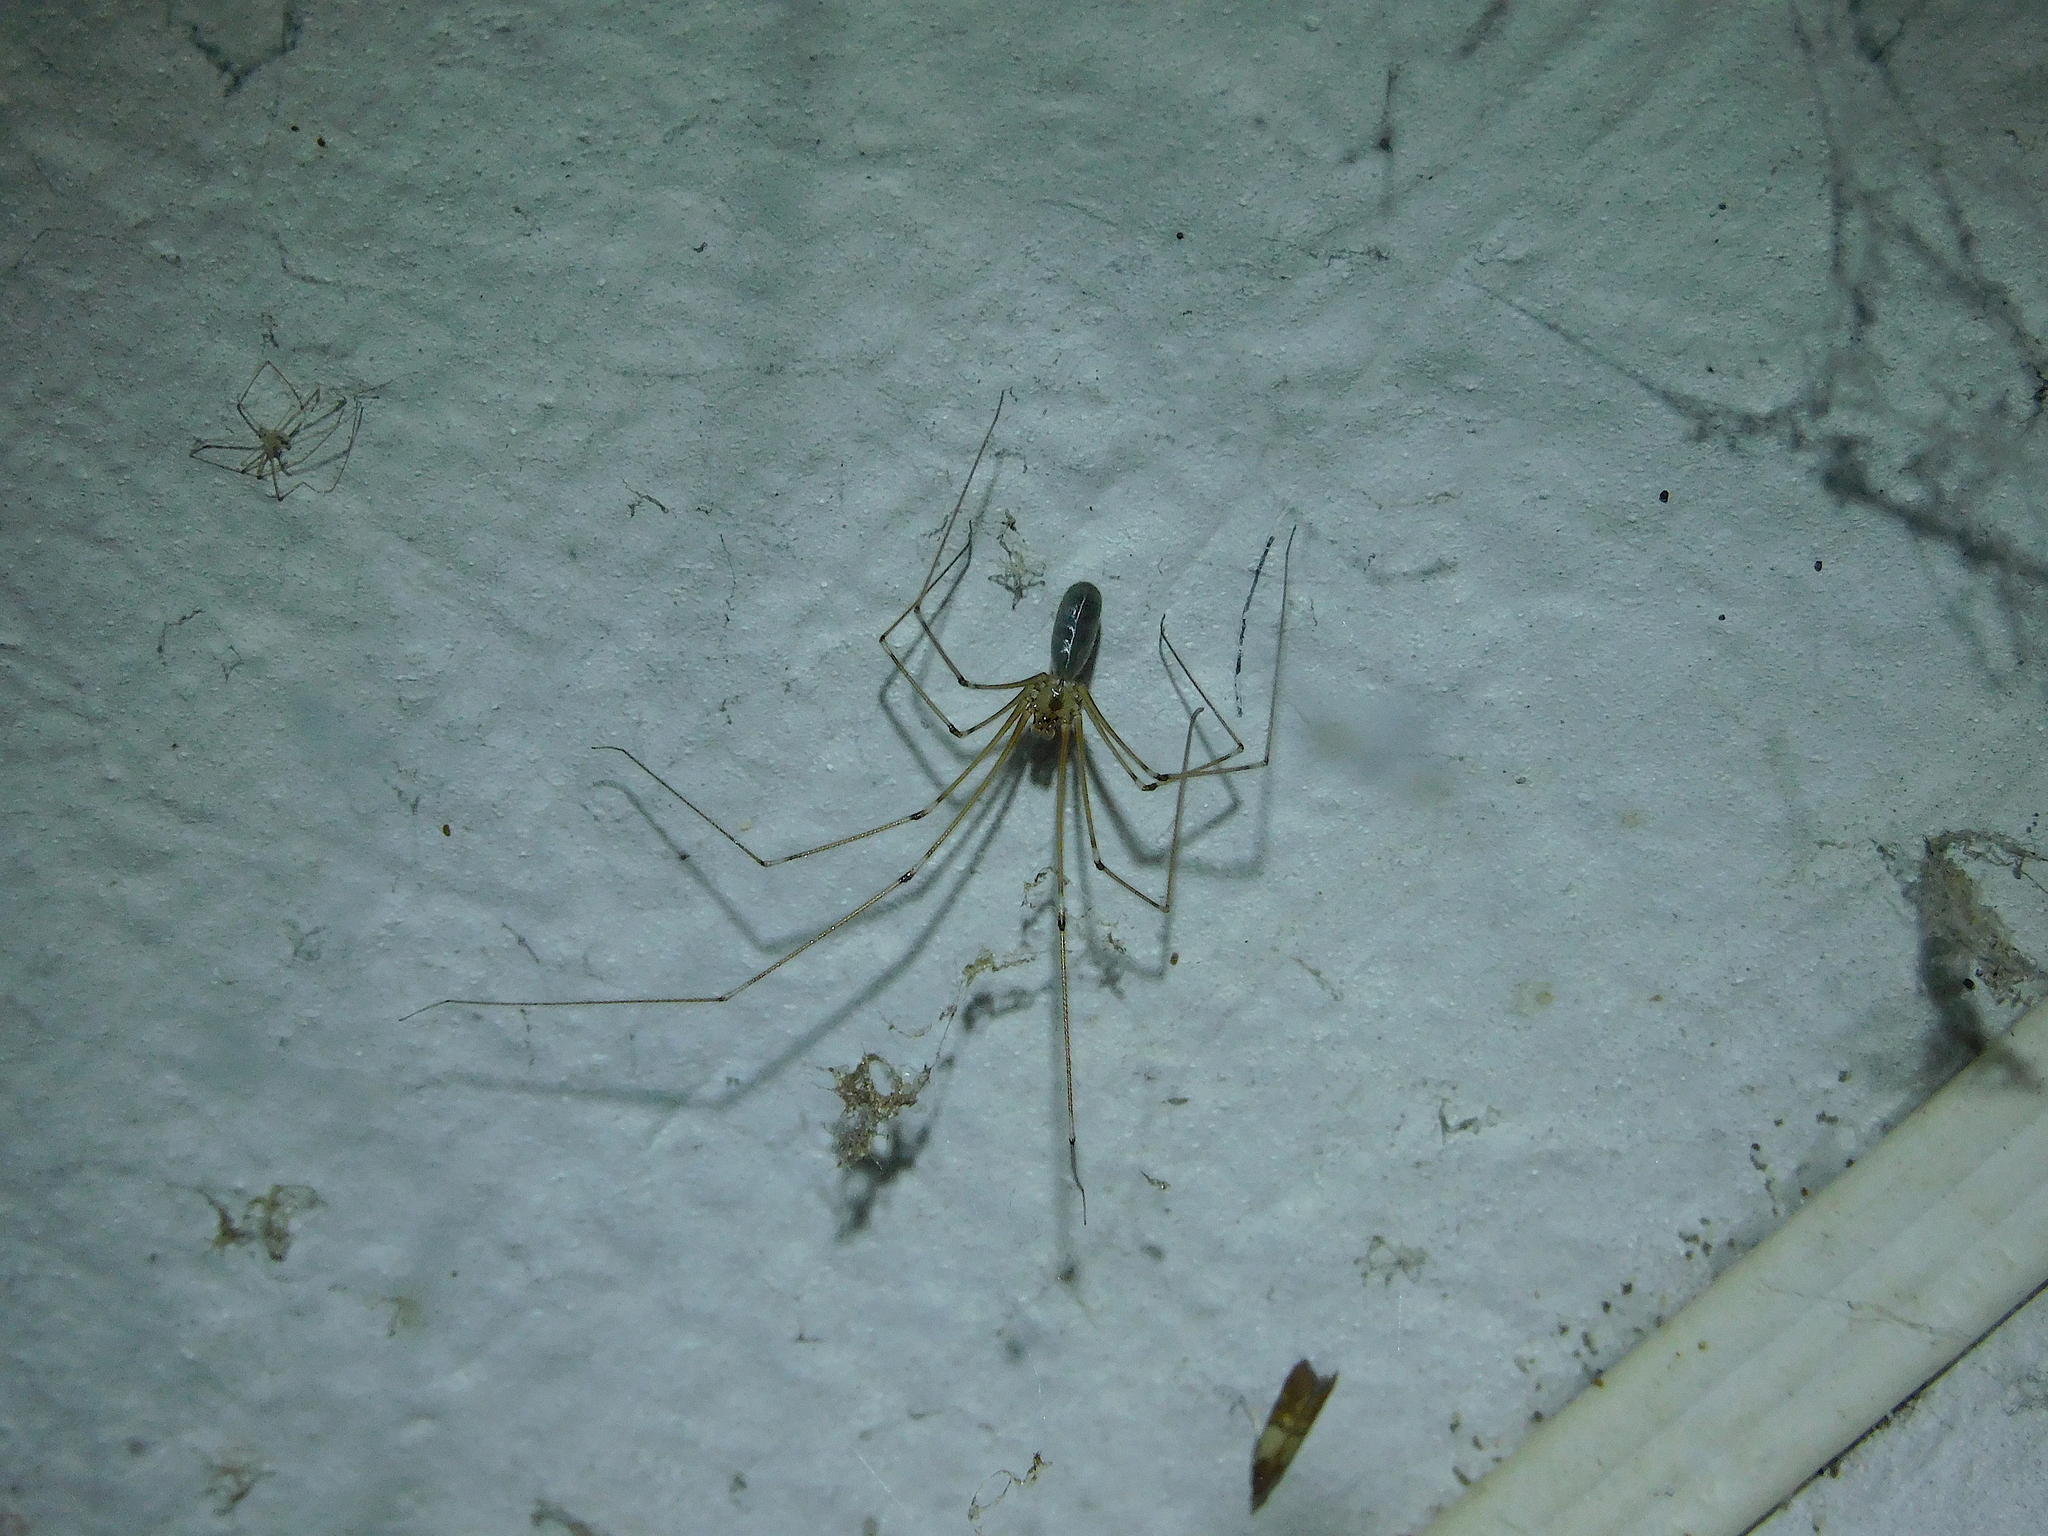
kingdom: Animalia
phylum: Arthropoda
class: Arachnida
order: Araneae
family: Pholcidae
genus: Pholcus
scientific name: Pholcus phalangioides
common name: Longbodied cellar spider
